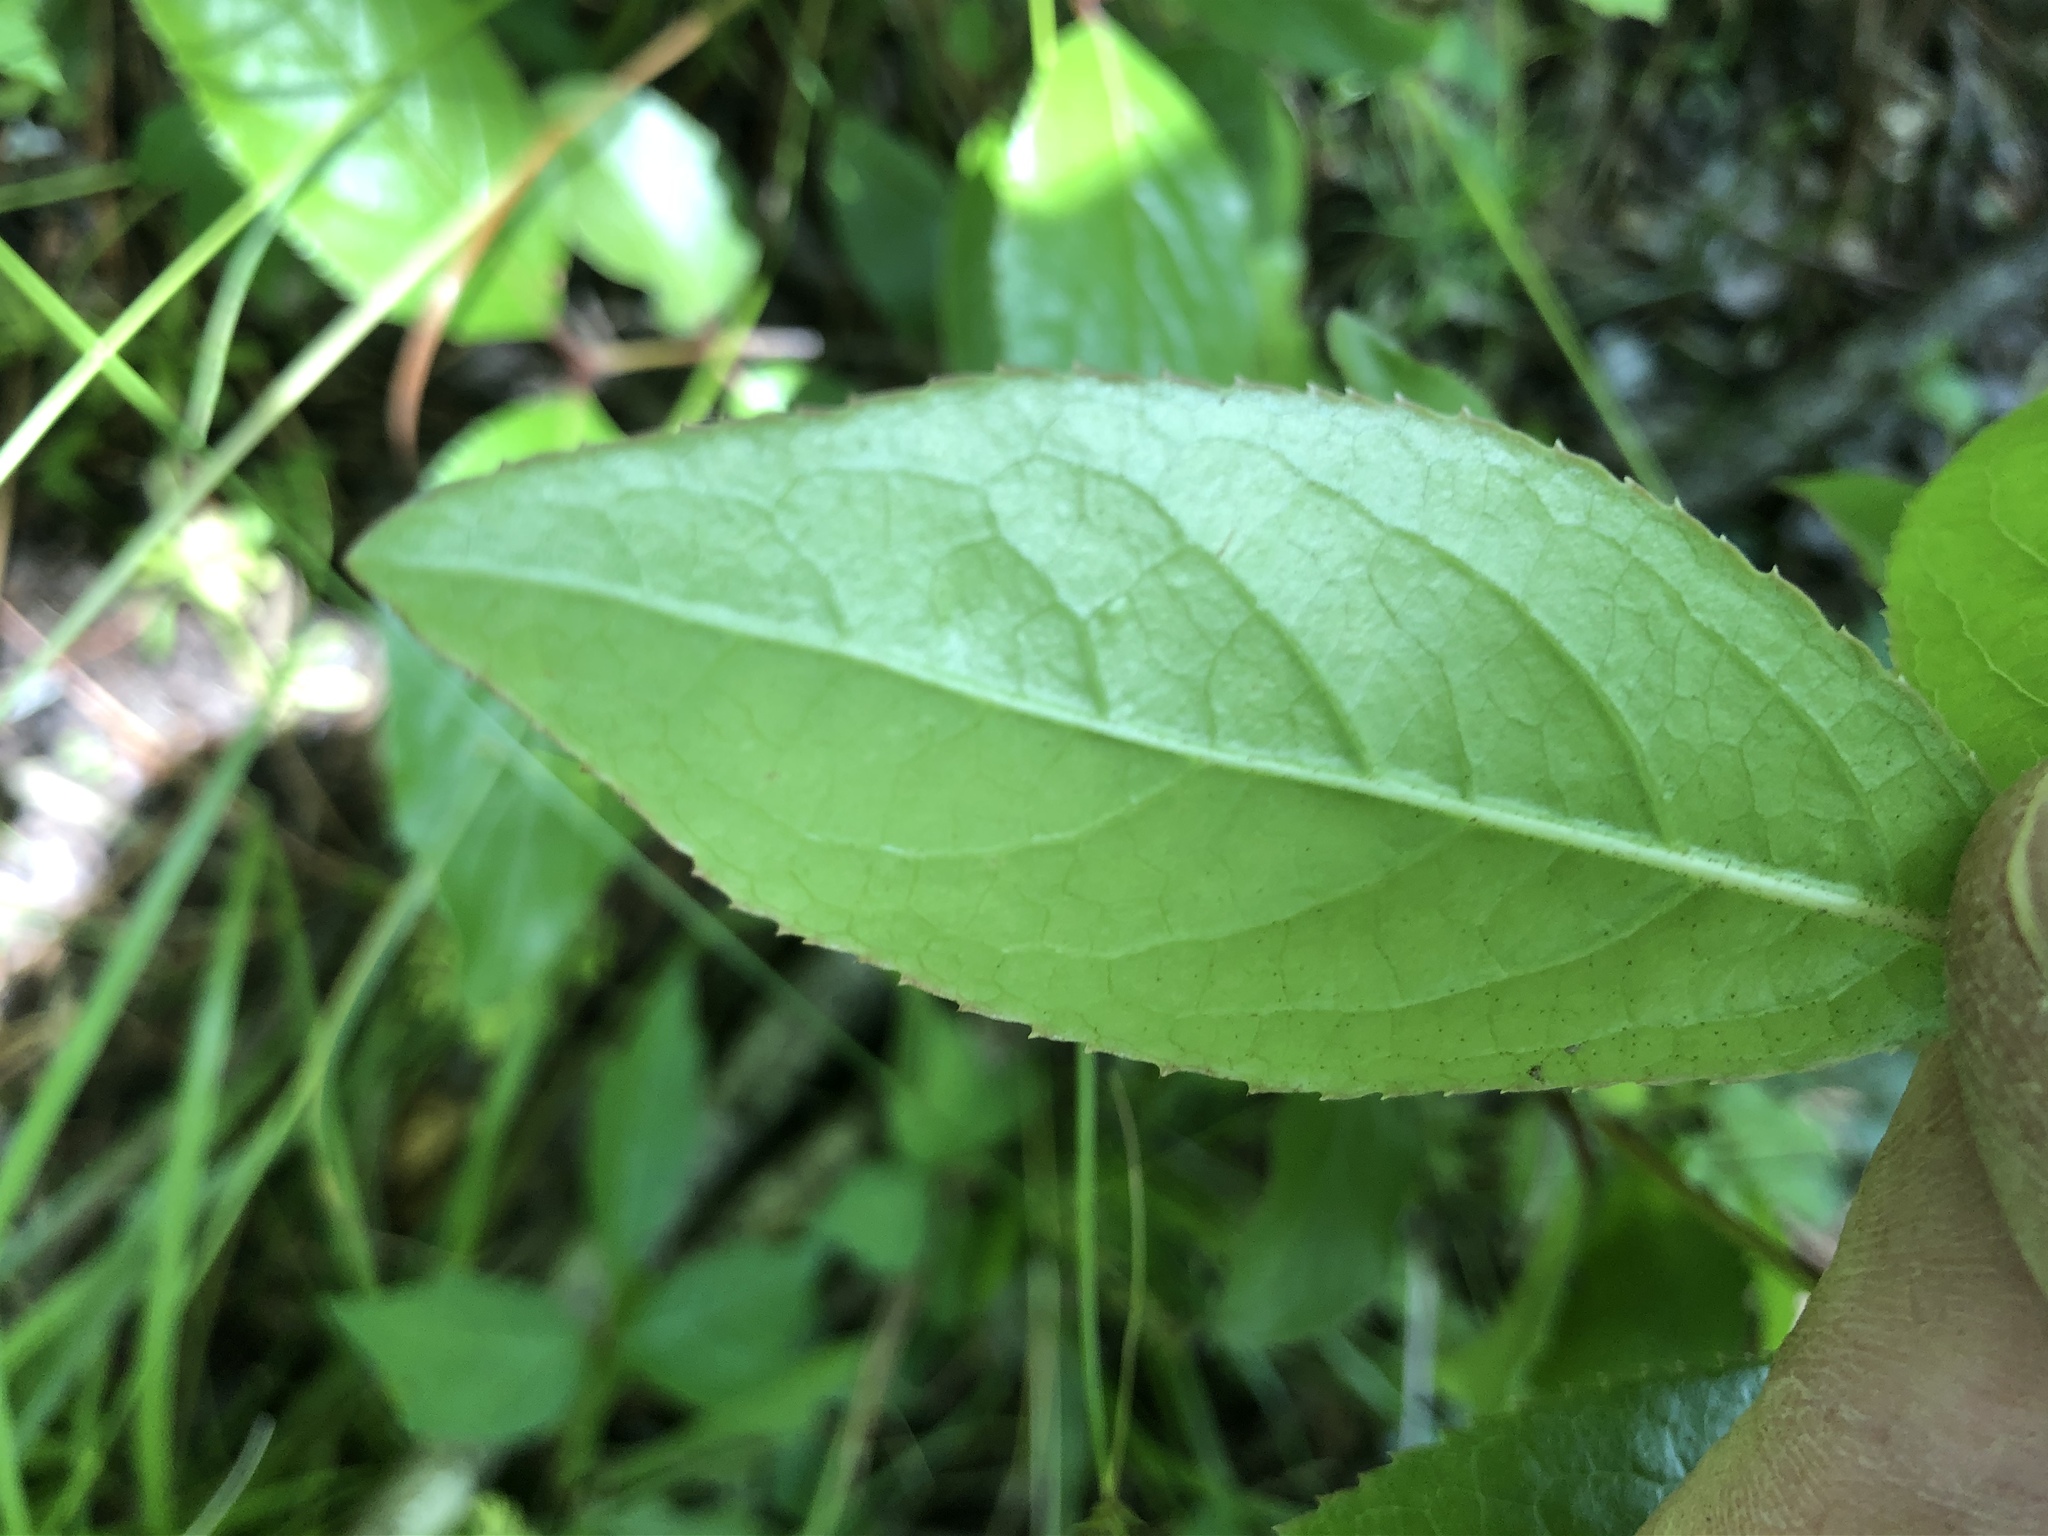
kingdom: Plantae
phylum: Tracheophyta
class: Magnoliopsida
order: Dipsacales
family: Viburnaceae
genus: Viburnum
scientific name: Viburnum rufidulum
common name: Blue haw
